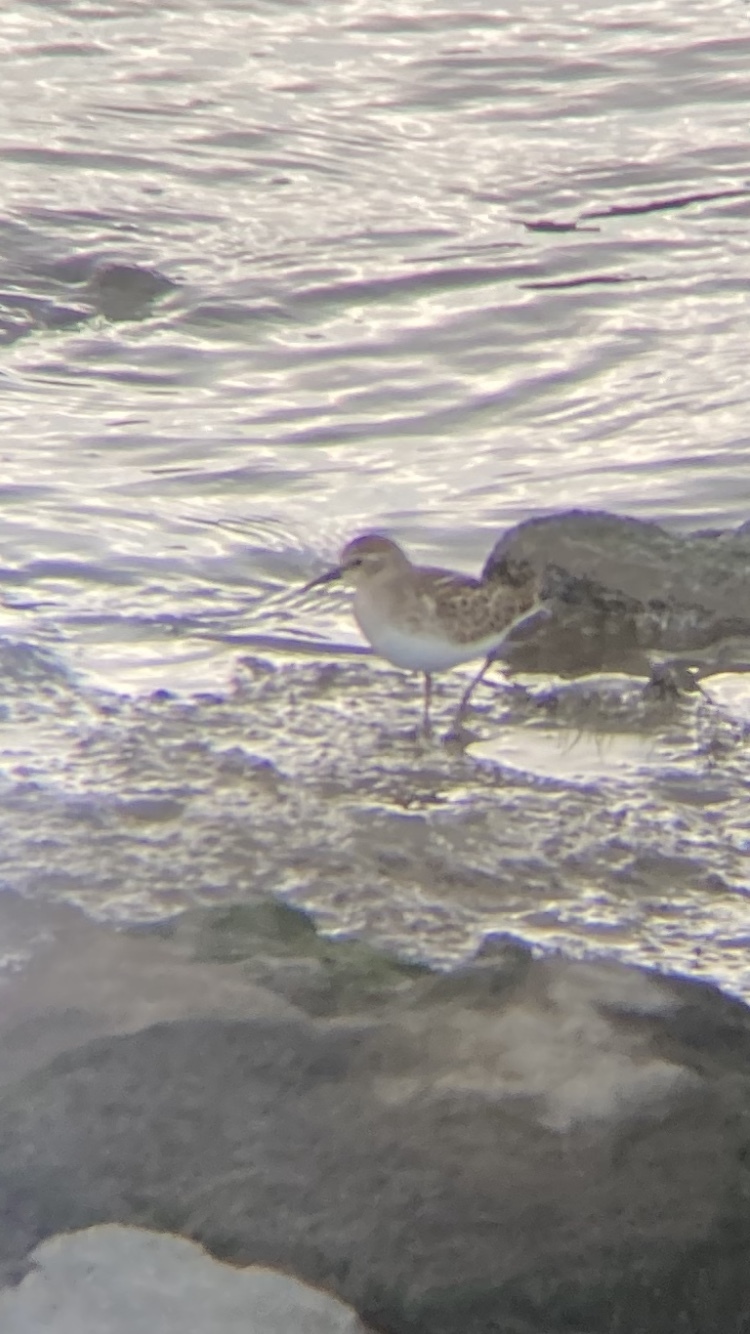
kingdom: Animalia
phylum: Chordata
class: Aves
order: Charadriiformes
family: Scolopacidae
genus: Calidris
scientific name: Calidris minutilla
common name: Least sandpiper
